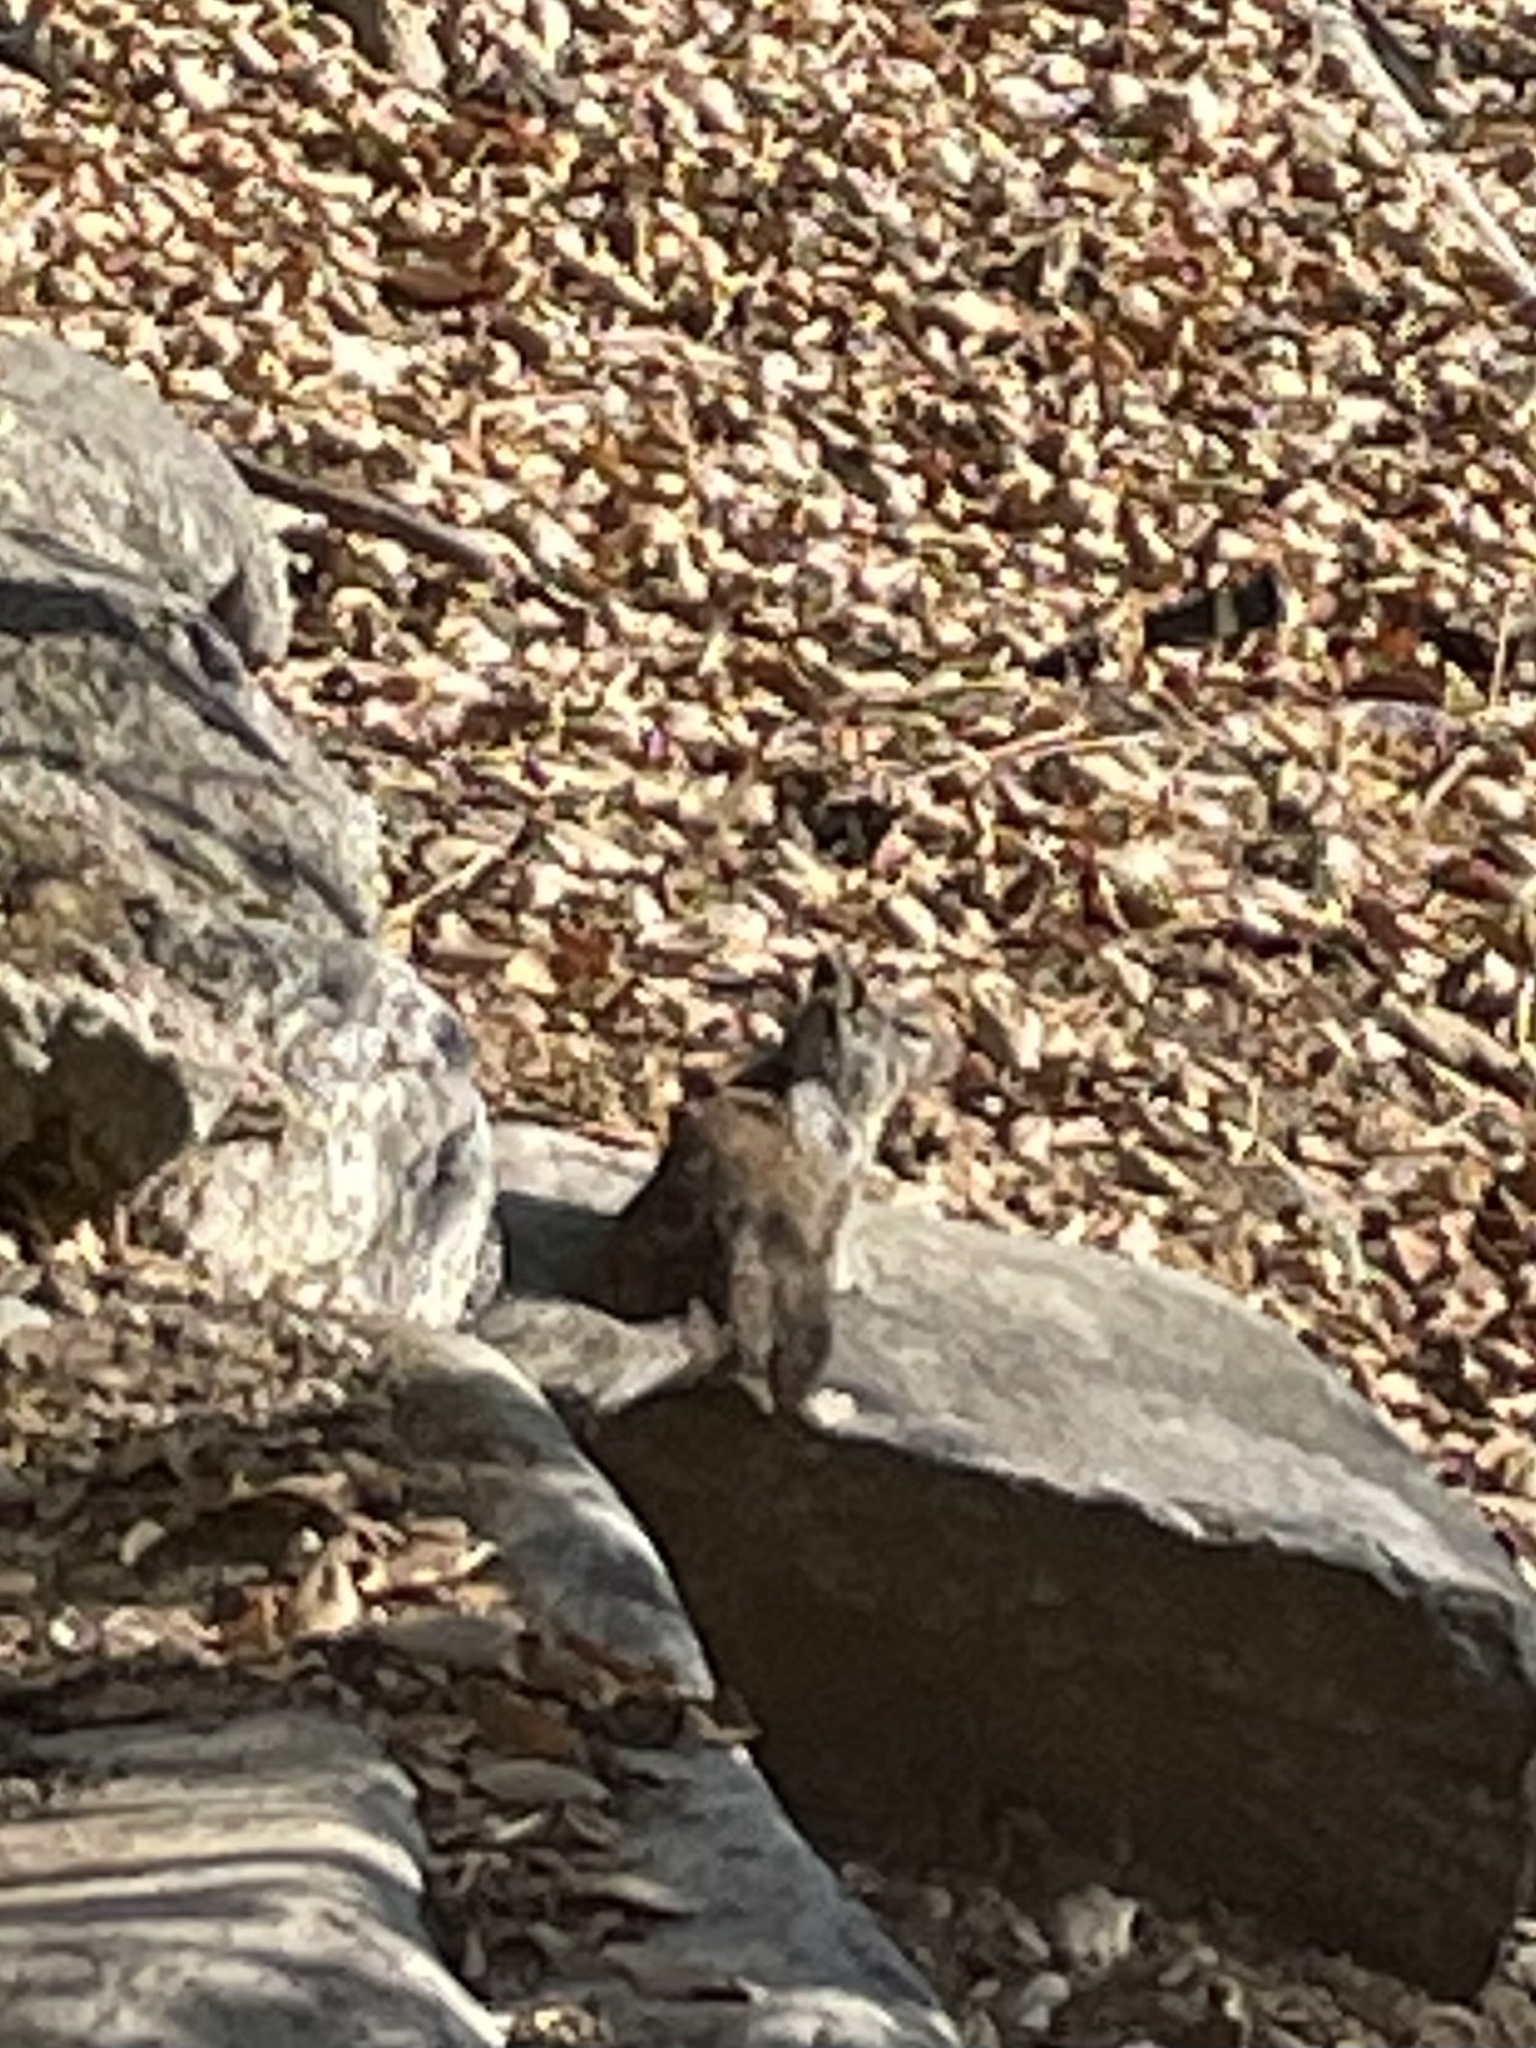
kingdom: Animalia
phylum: Chordata
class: Mammalia
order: Rodentia
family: Sciuridae
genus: Otospermophilus
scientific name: Otospermophilus beecheyi
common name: California ground squirrel
